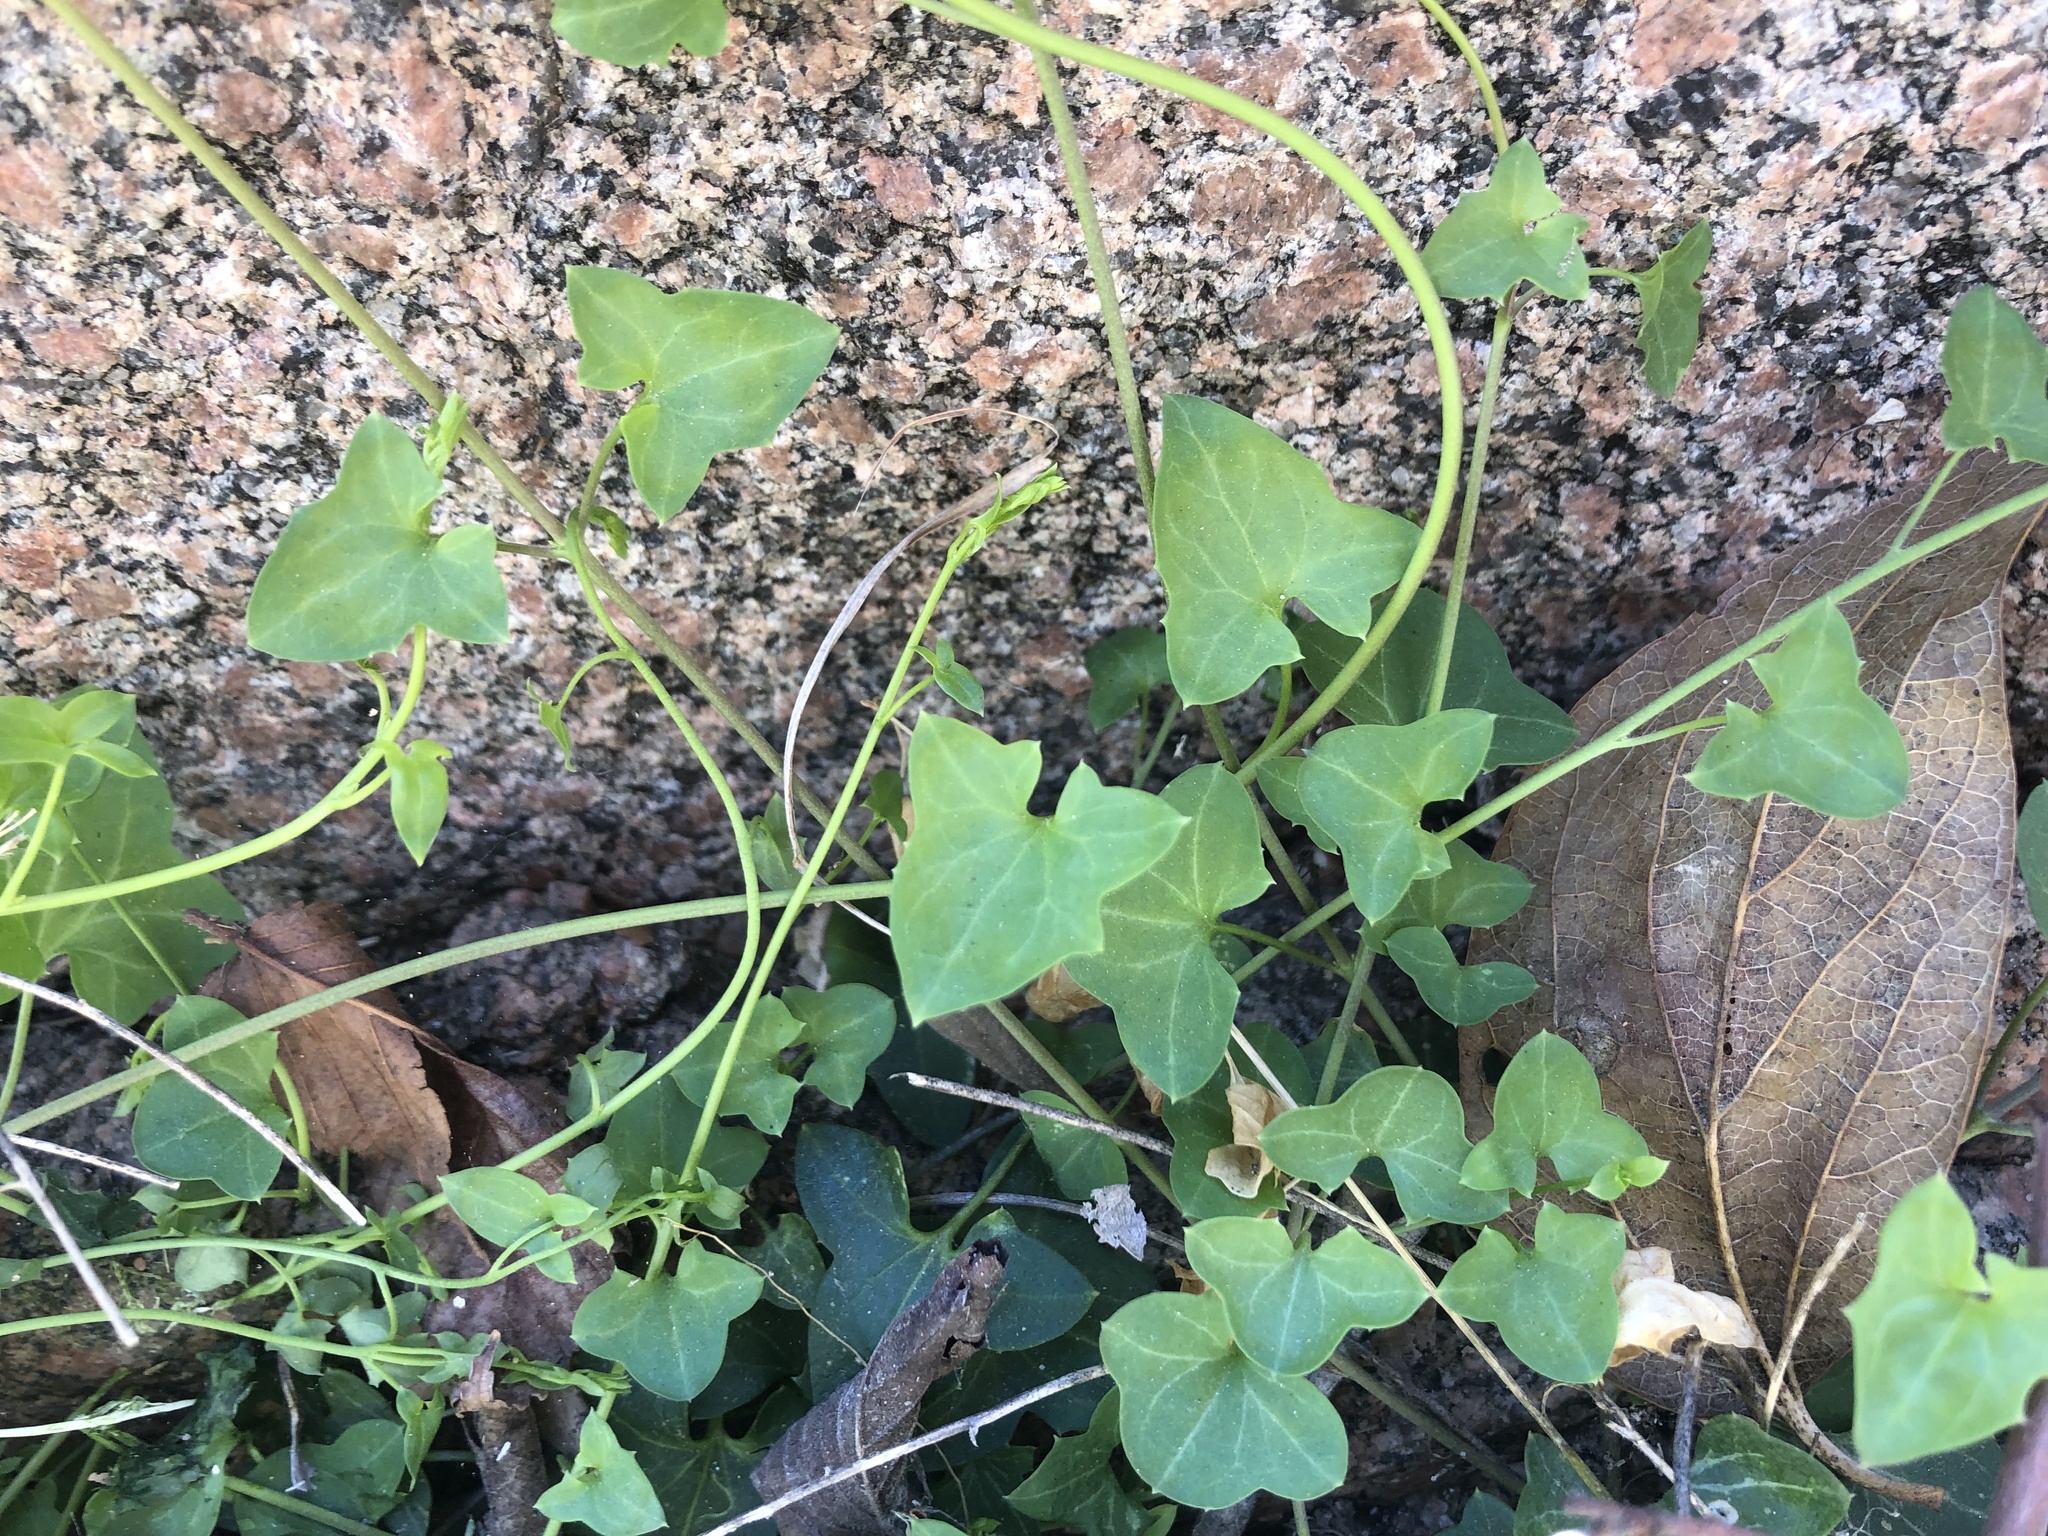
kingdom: Plantae
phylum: Tracheophyta
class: Magnoliopsida
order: Lamiales
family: Plantaginaceae
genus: Maurandella
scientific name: Maurandella antirrhiniflora
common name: Violet twining-snapdragon
